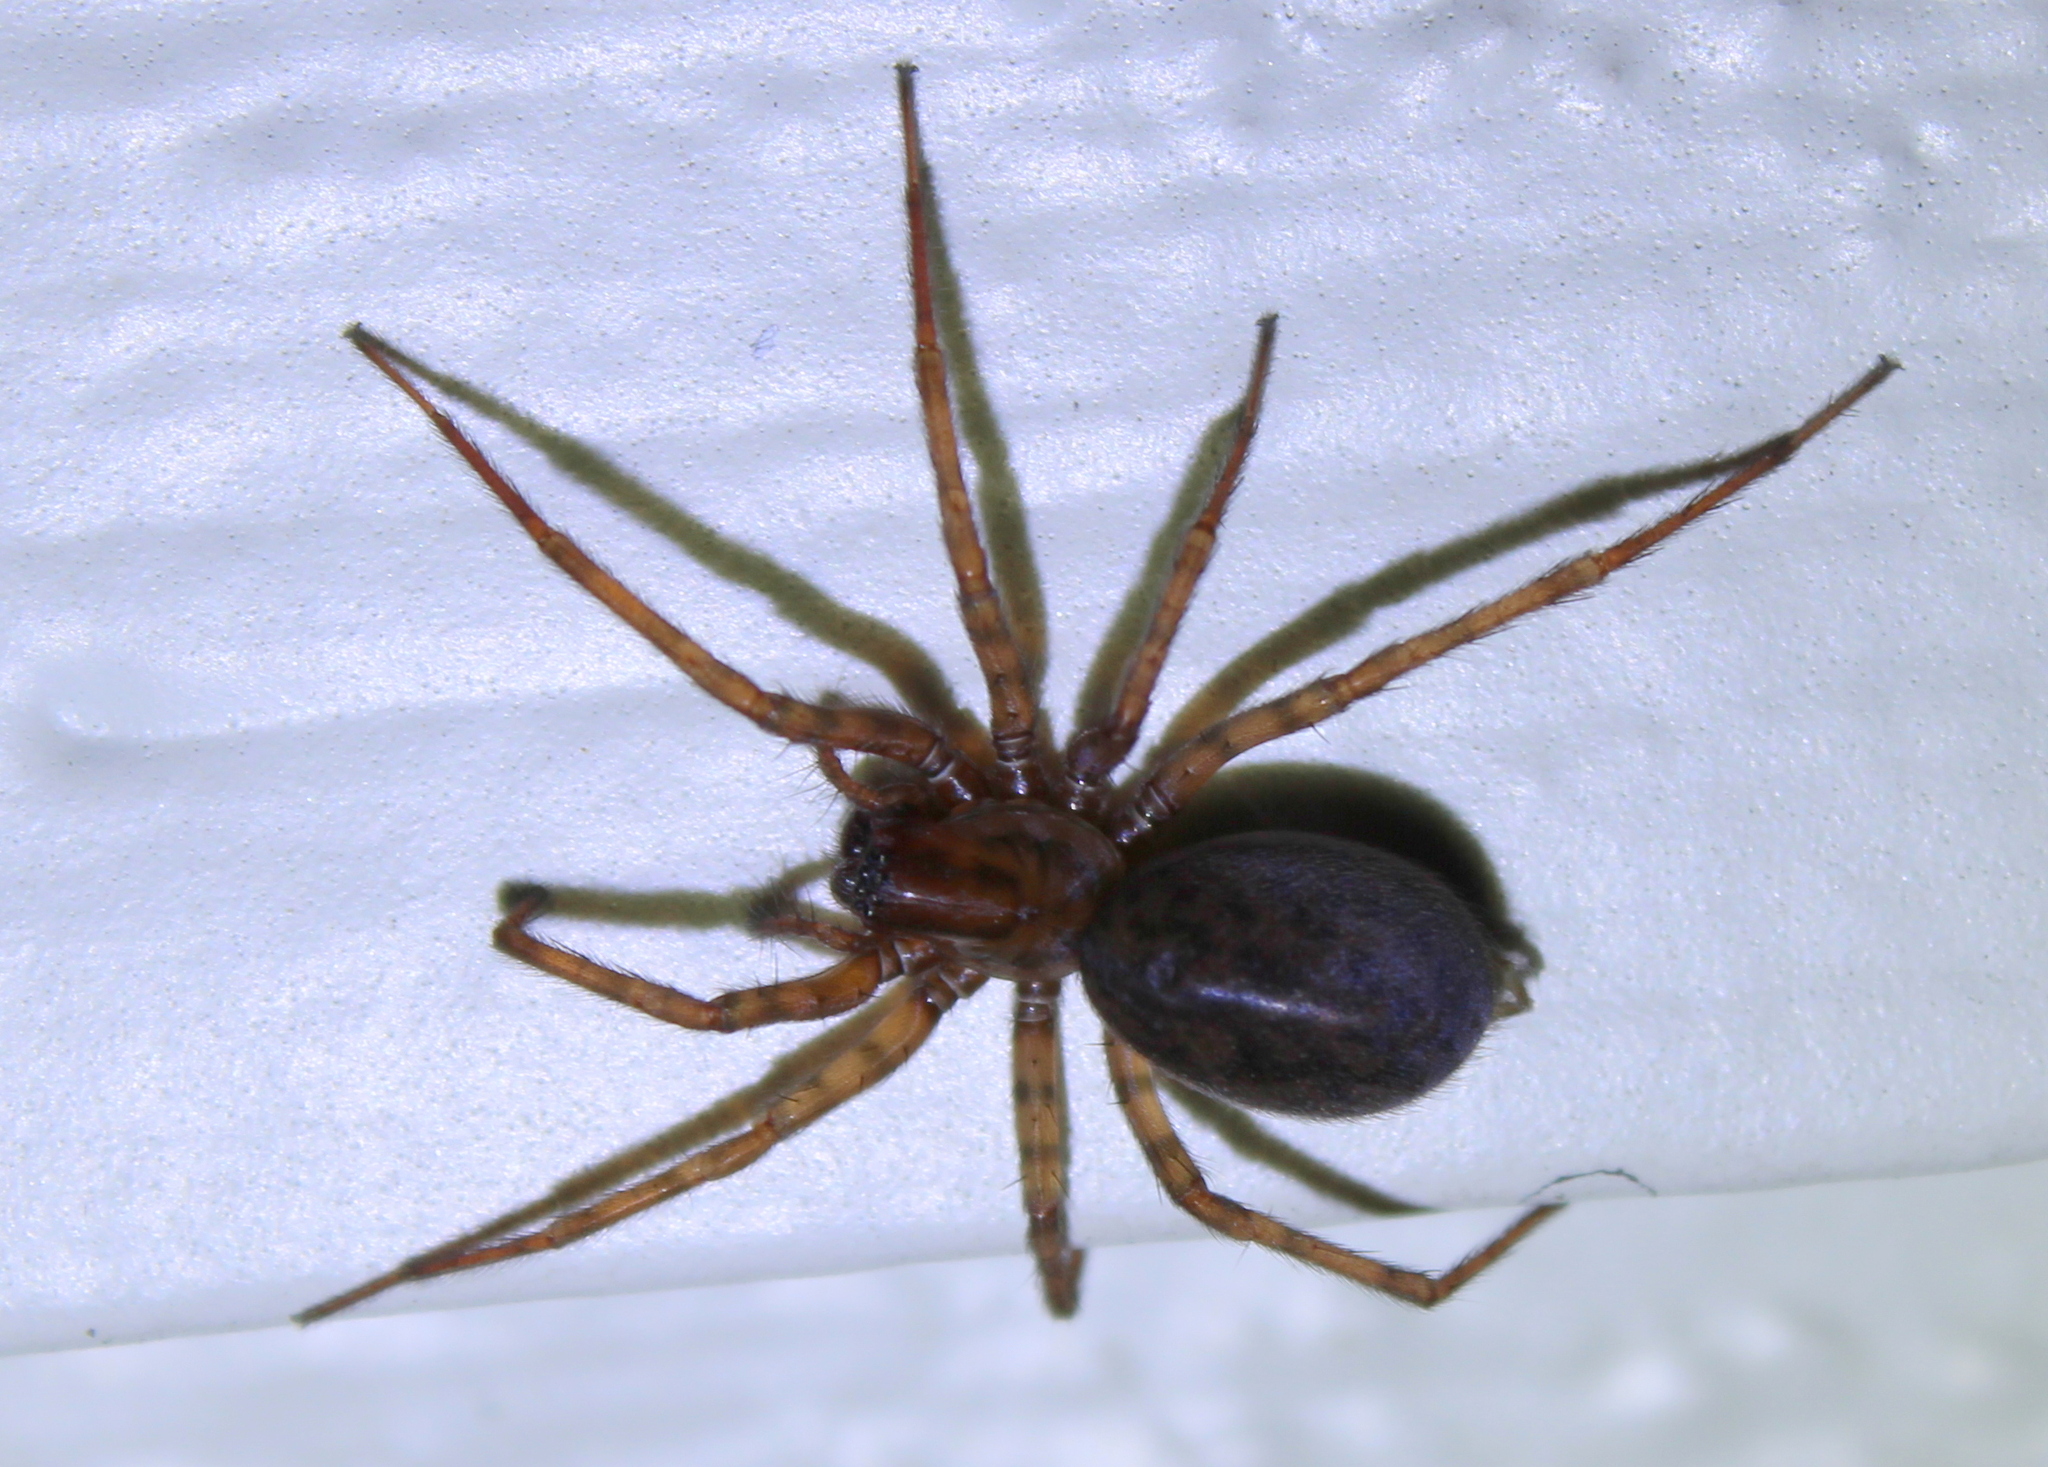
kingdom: Animalia
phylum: Arthropoda
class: Arachnida
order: Araneae
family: Agelenidae
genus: Coras
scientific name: Coras
